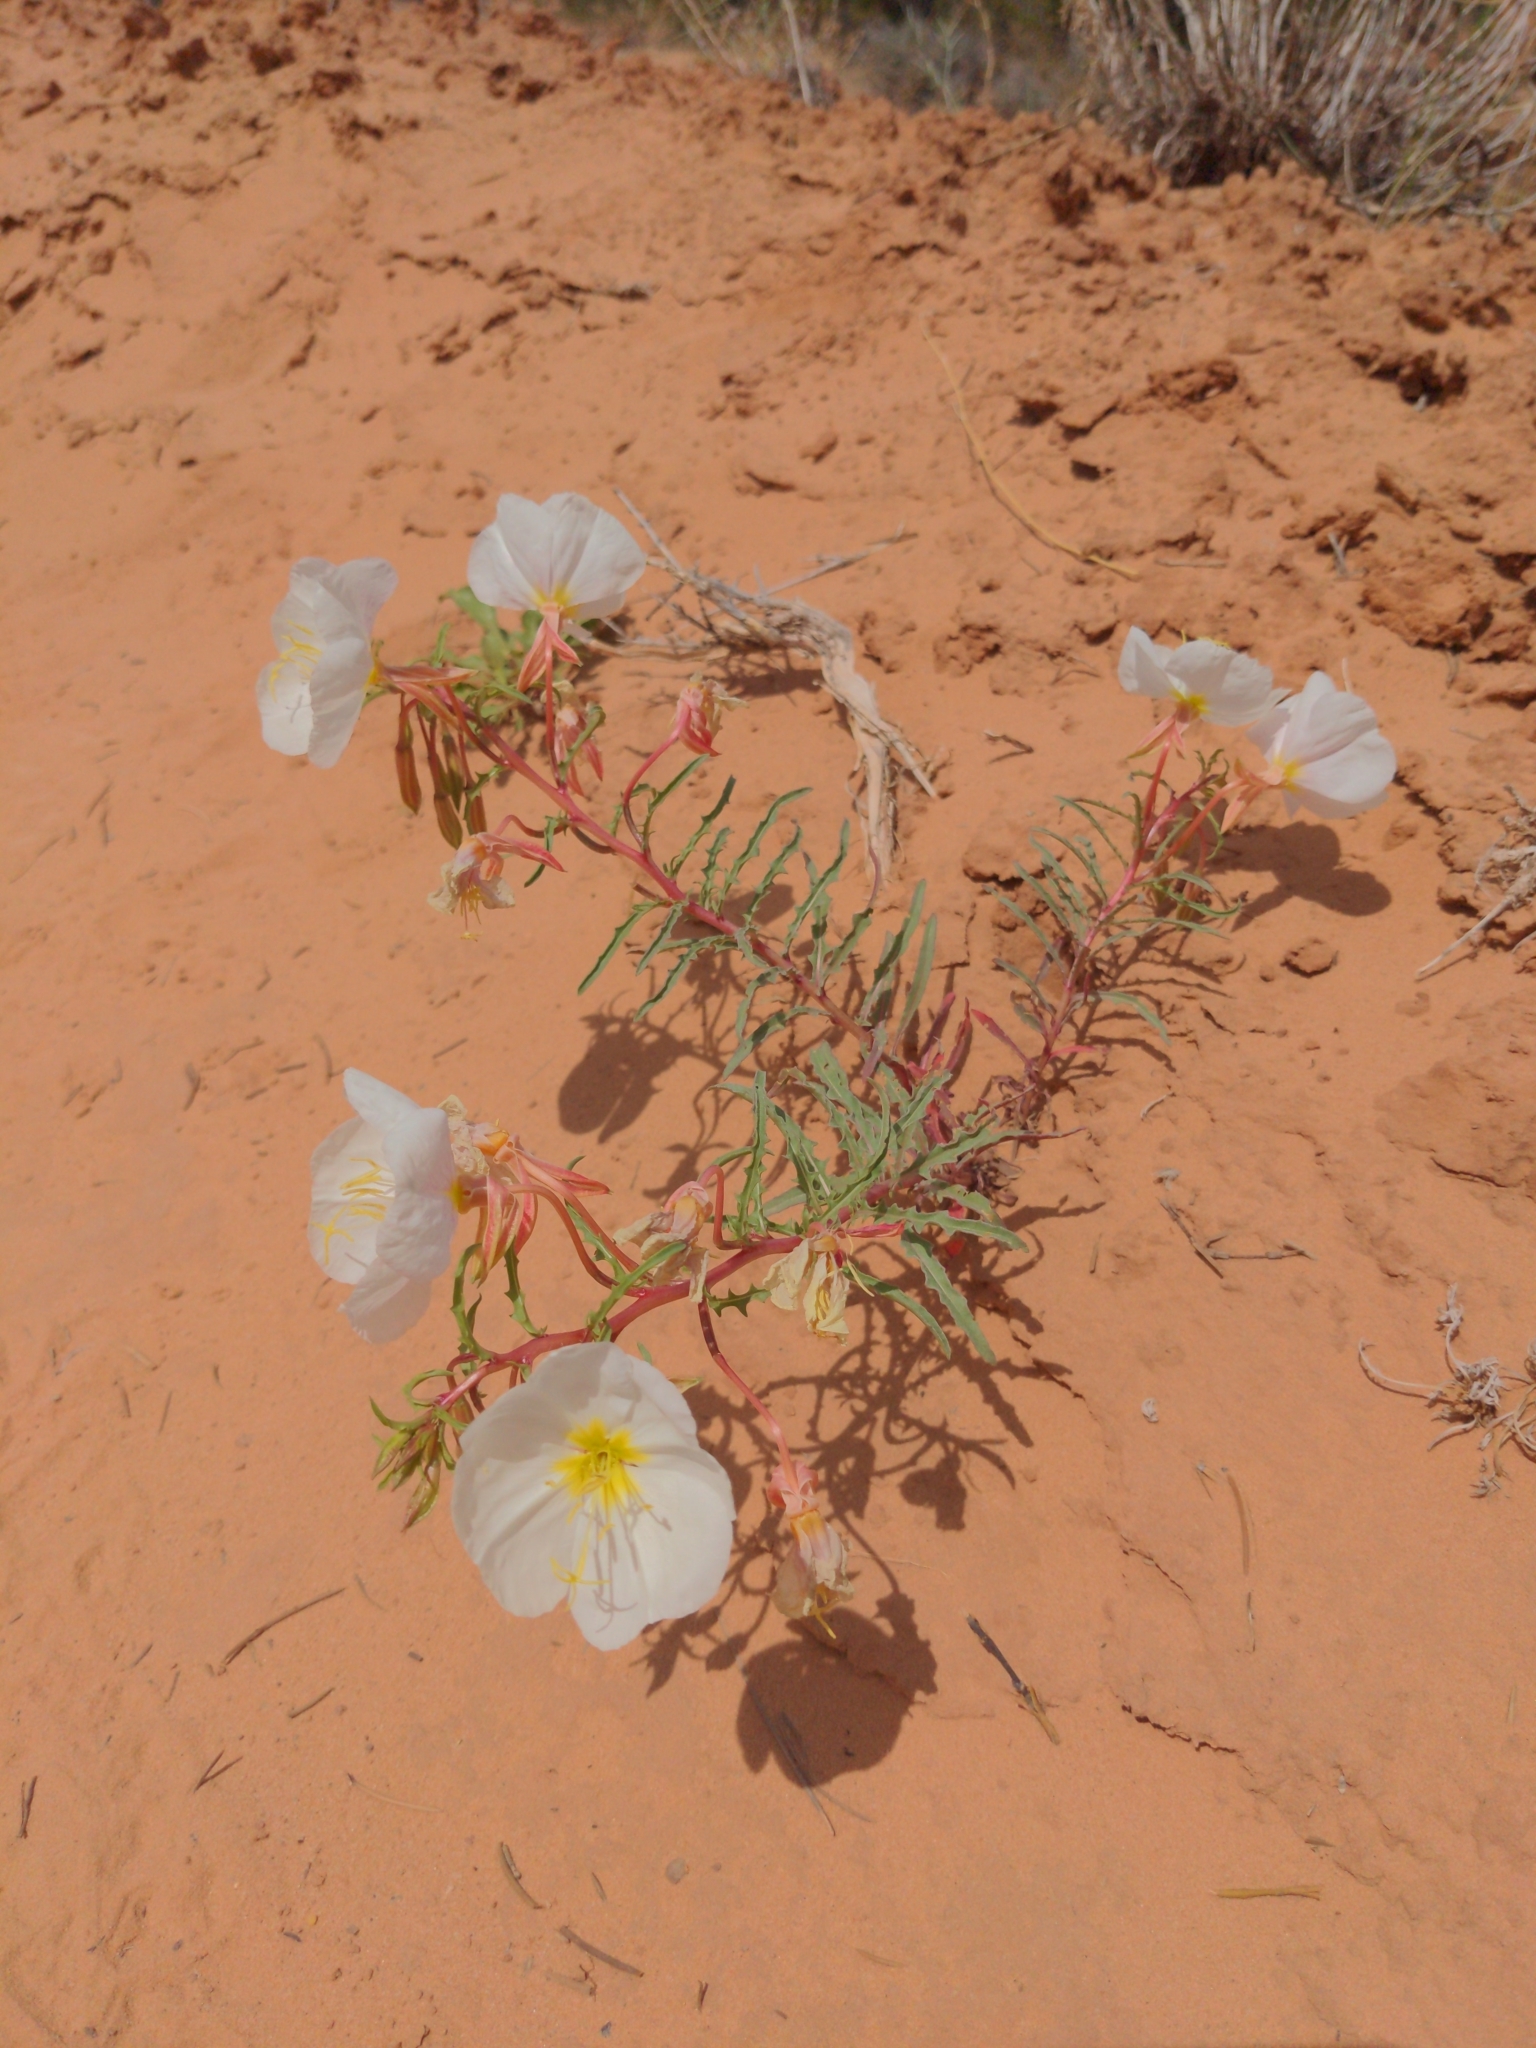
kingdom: Plantae
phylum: Tracheophyta
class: Magnoliopsida
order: Myrtales
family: Onagraceae
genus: Oenothera
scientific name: Oenothera pallida
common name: Pale evening-primrose
